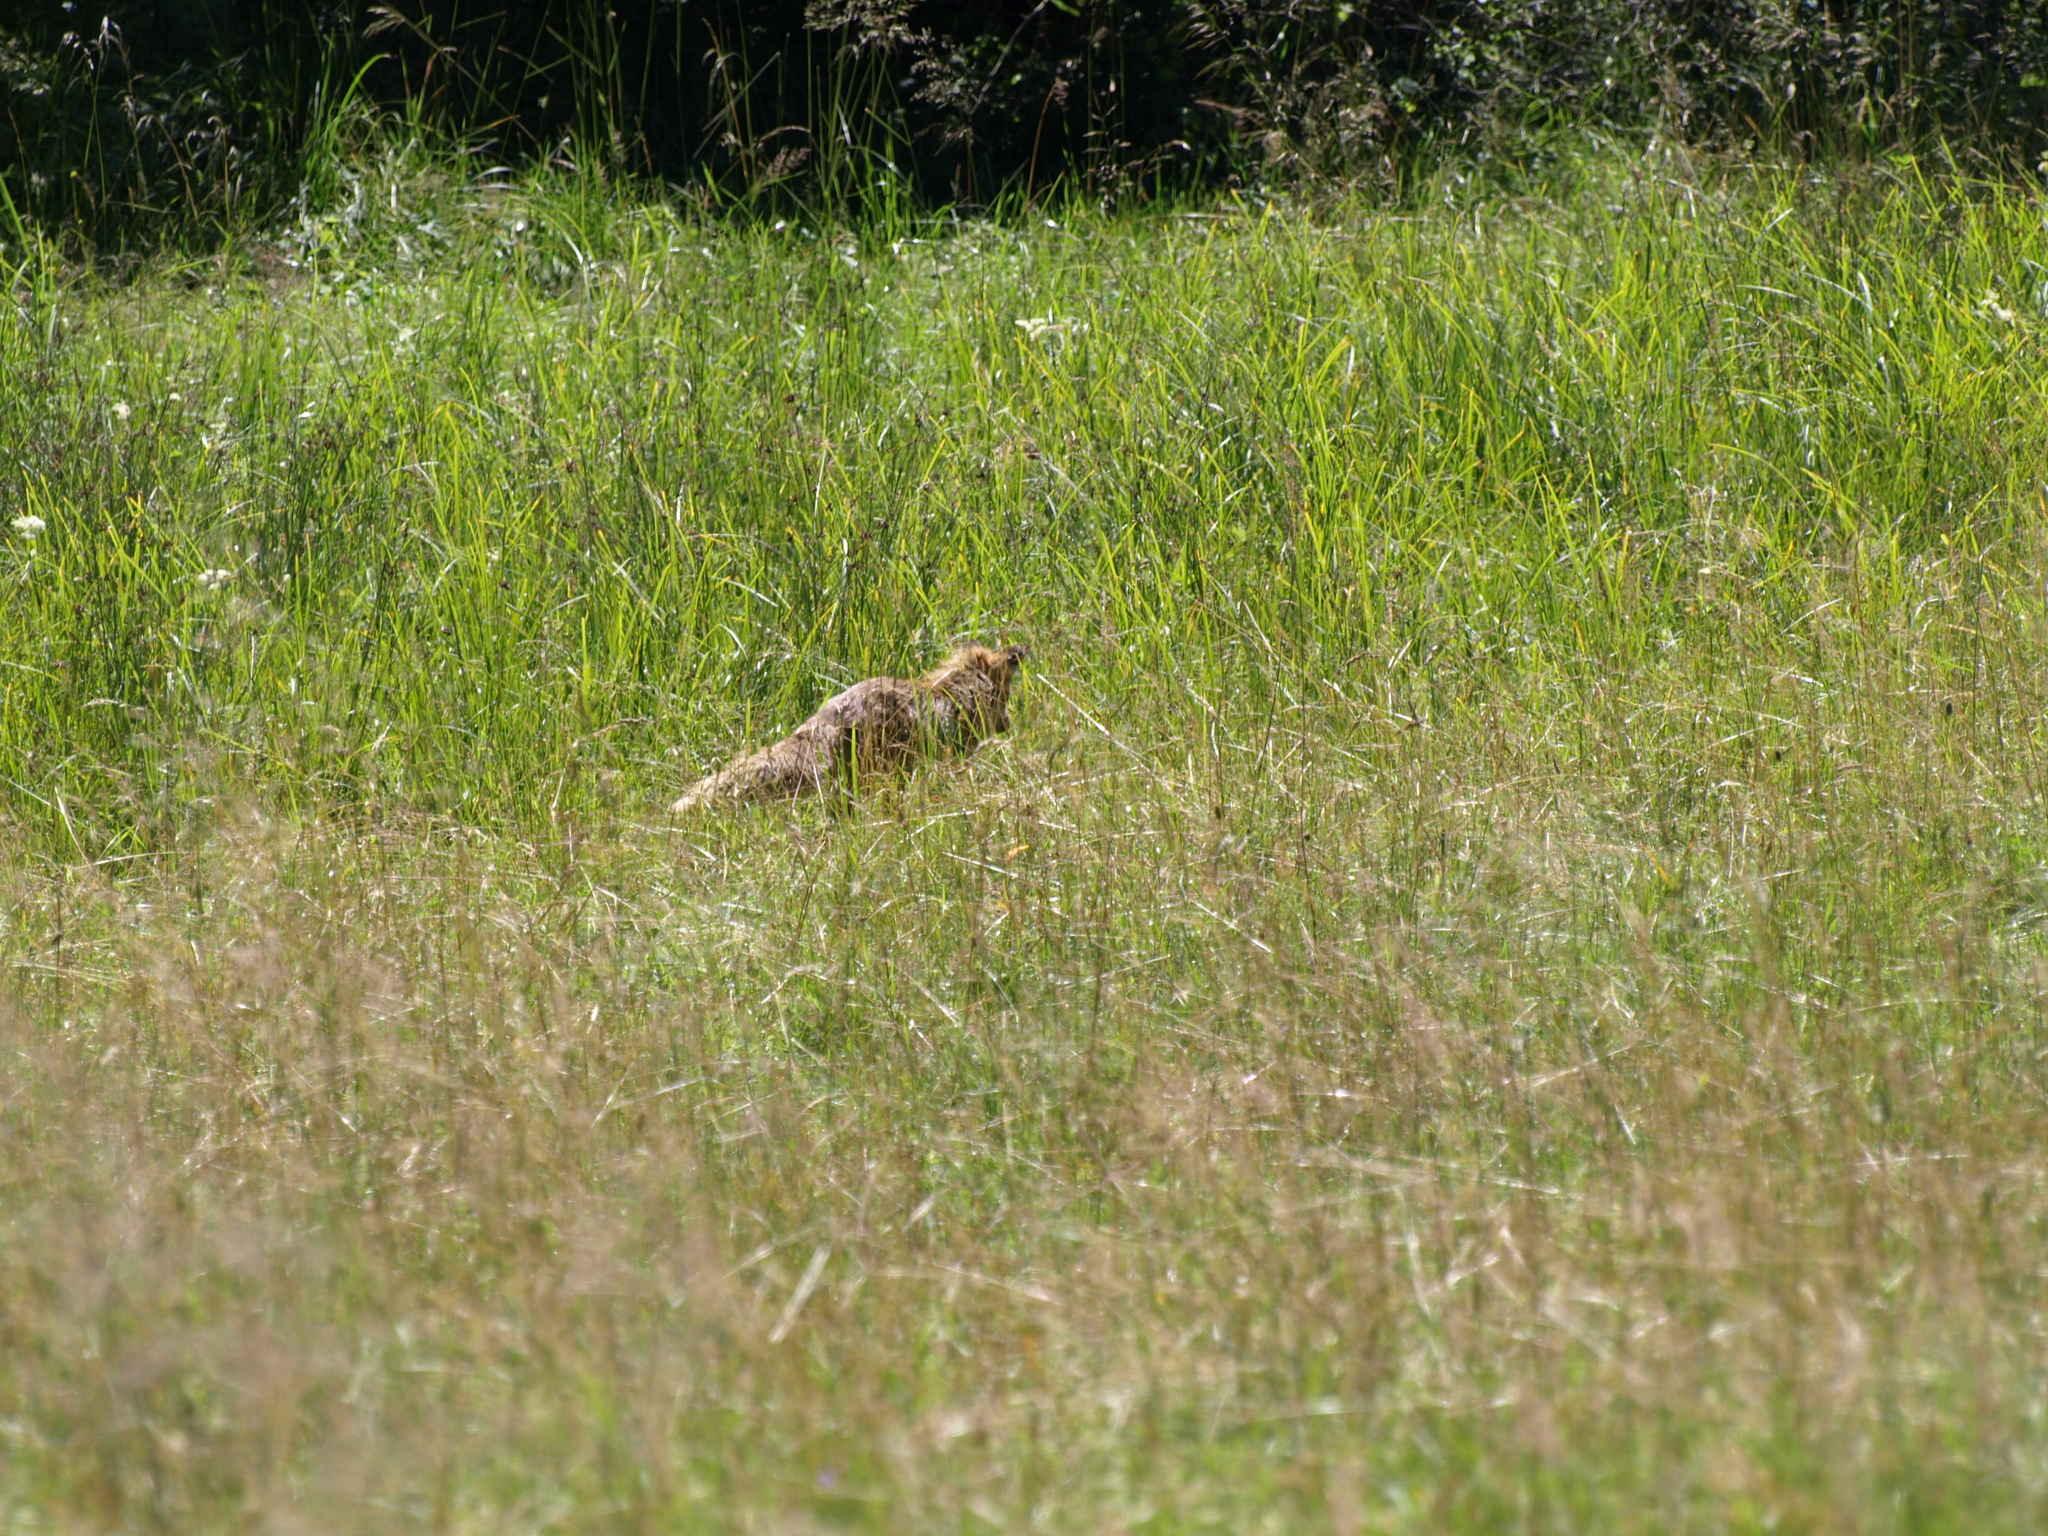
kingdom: Animalia
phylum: Chordata
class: Mammalia
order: Carnivora
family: Canidae
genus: Vulpes
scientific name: Vulpes vulpes
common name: Red fox
